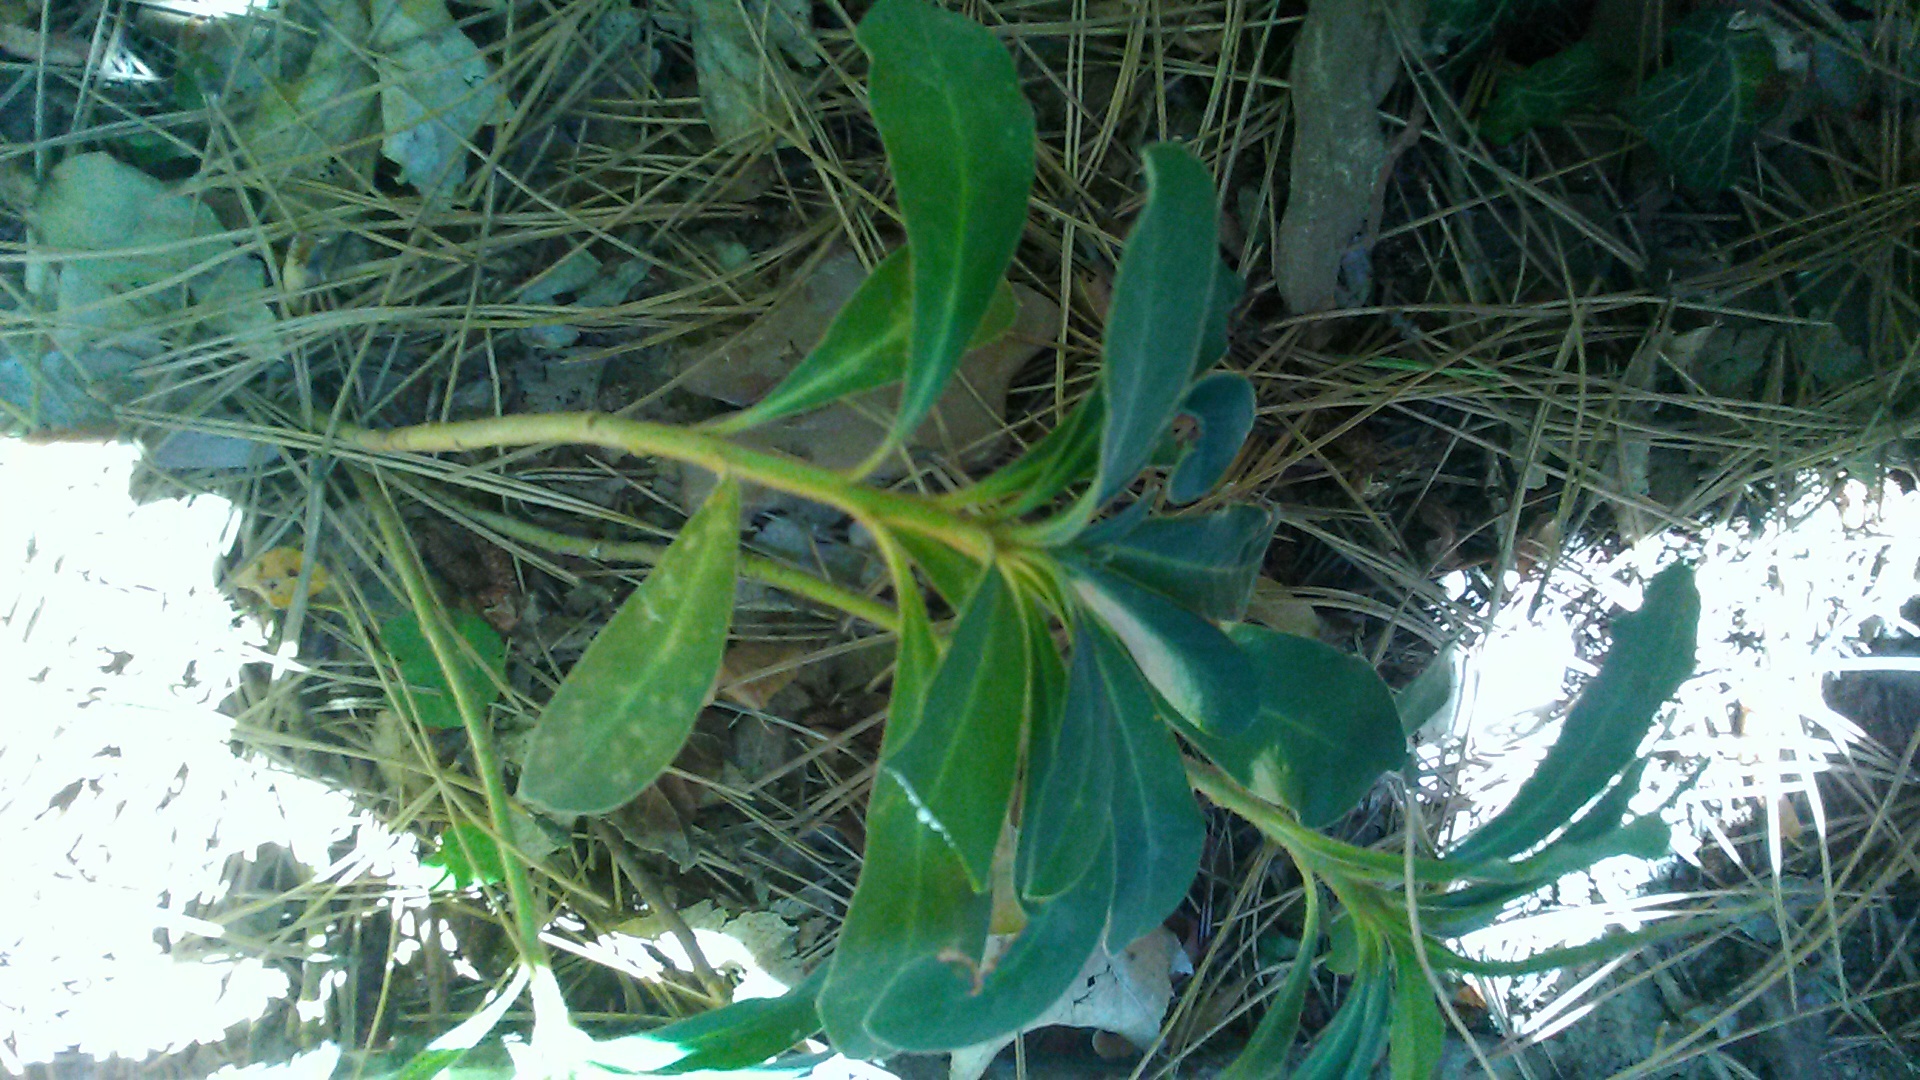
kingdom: Plantae
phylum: Tracheophyta
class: Magnoliopsida
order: Malpighiales
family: Euphorbiaceae
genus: Euphorbia
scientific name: Euphorbia amygdaloides
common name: Wood spurge
